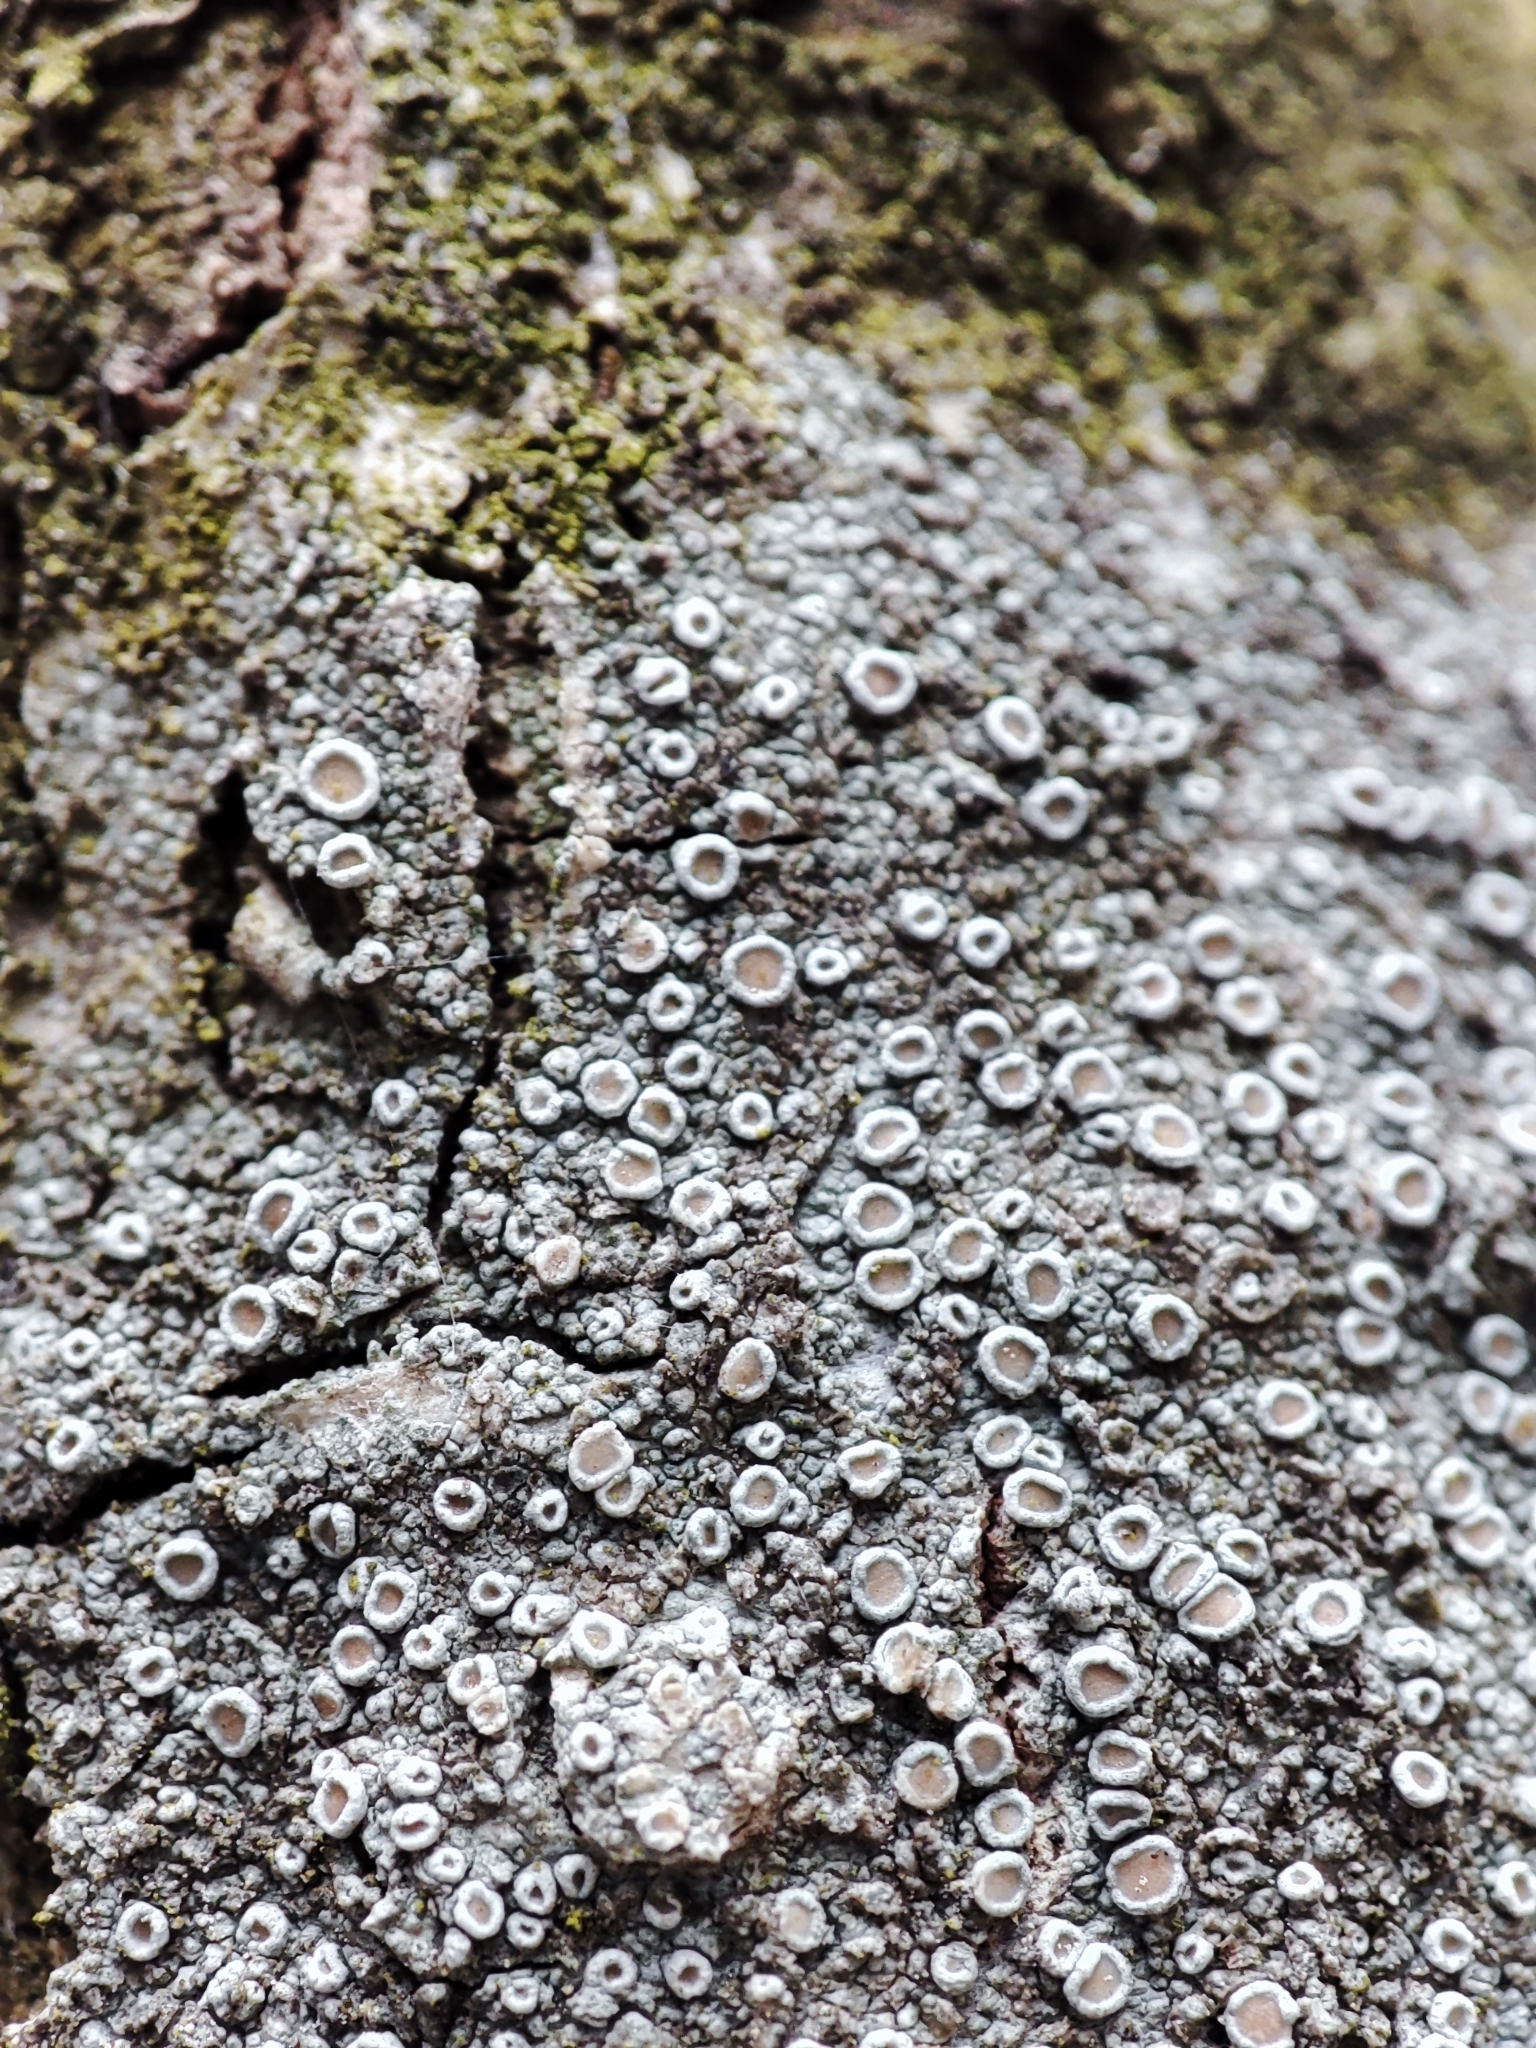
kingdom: Fungi
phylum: Ascomycota
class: Lecanoromycetes
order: Lecanorales
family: Lecanoraceae
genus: Lecanora
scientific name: Lecanora chlarotera
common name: Brown rim-lichen
